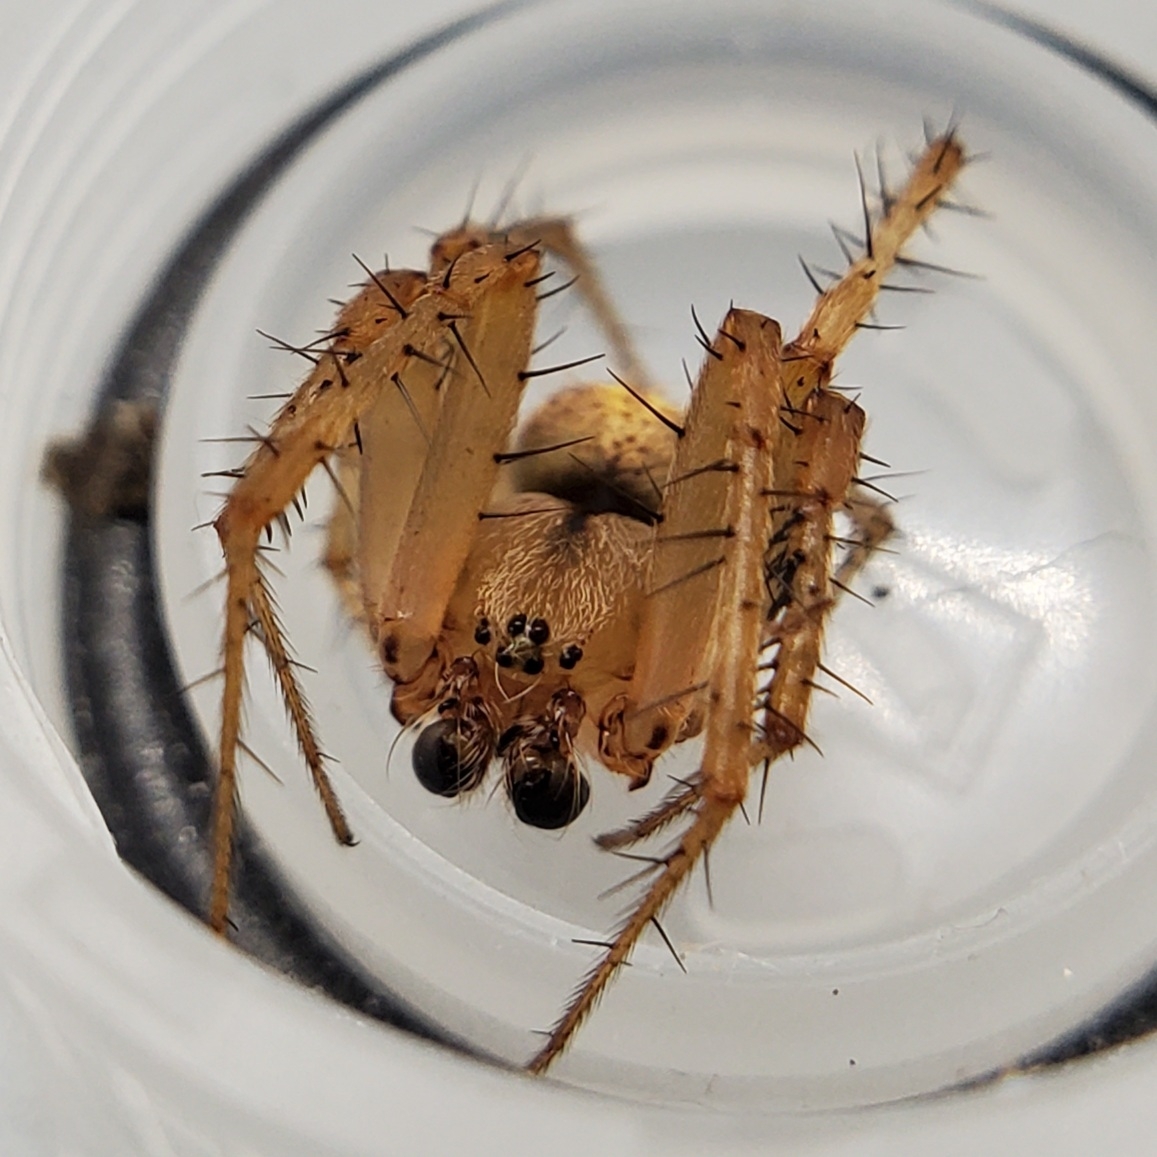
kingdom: Animalia
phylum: Arthropoda
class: Arachnida
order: Araneae
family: Araneidae
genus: Neoscona
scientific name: Neoscona arabesca
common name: Orb weavers
